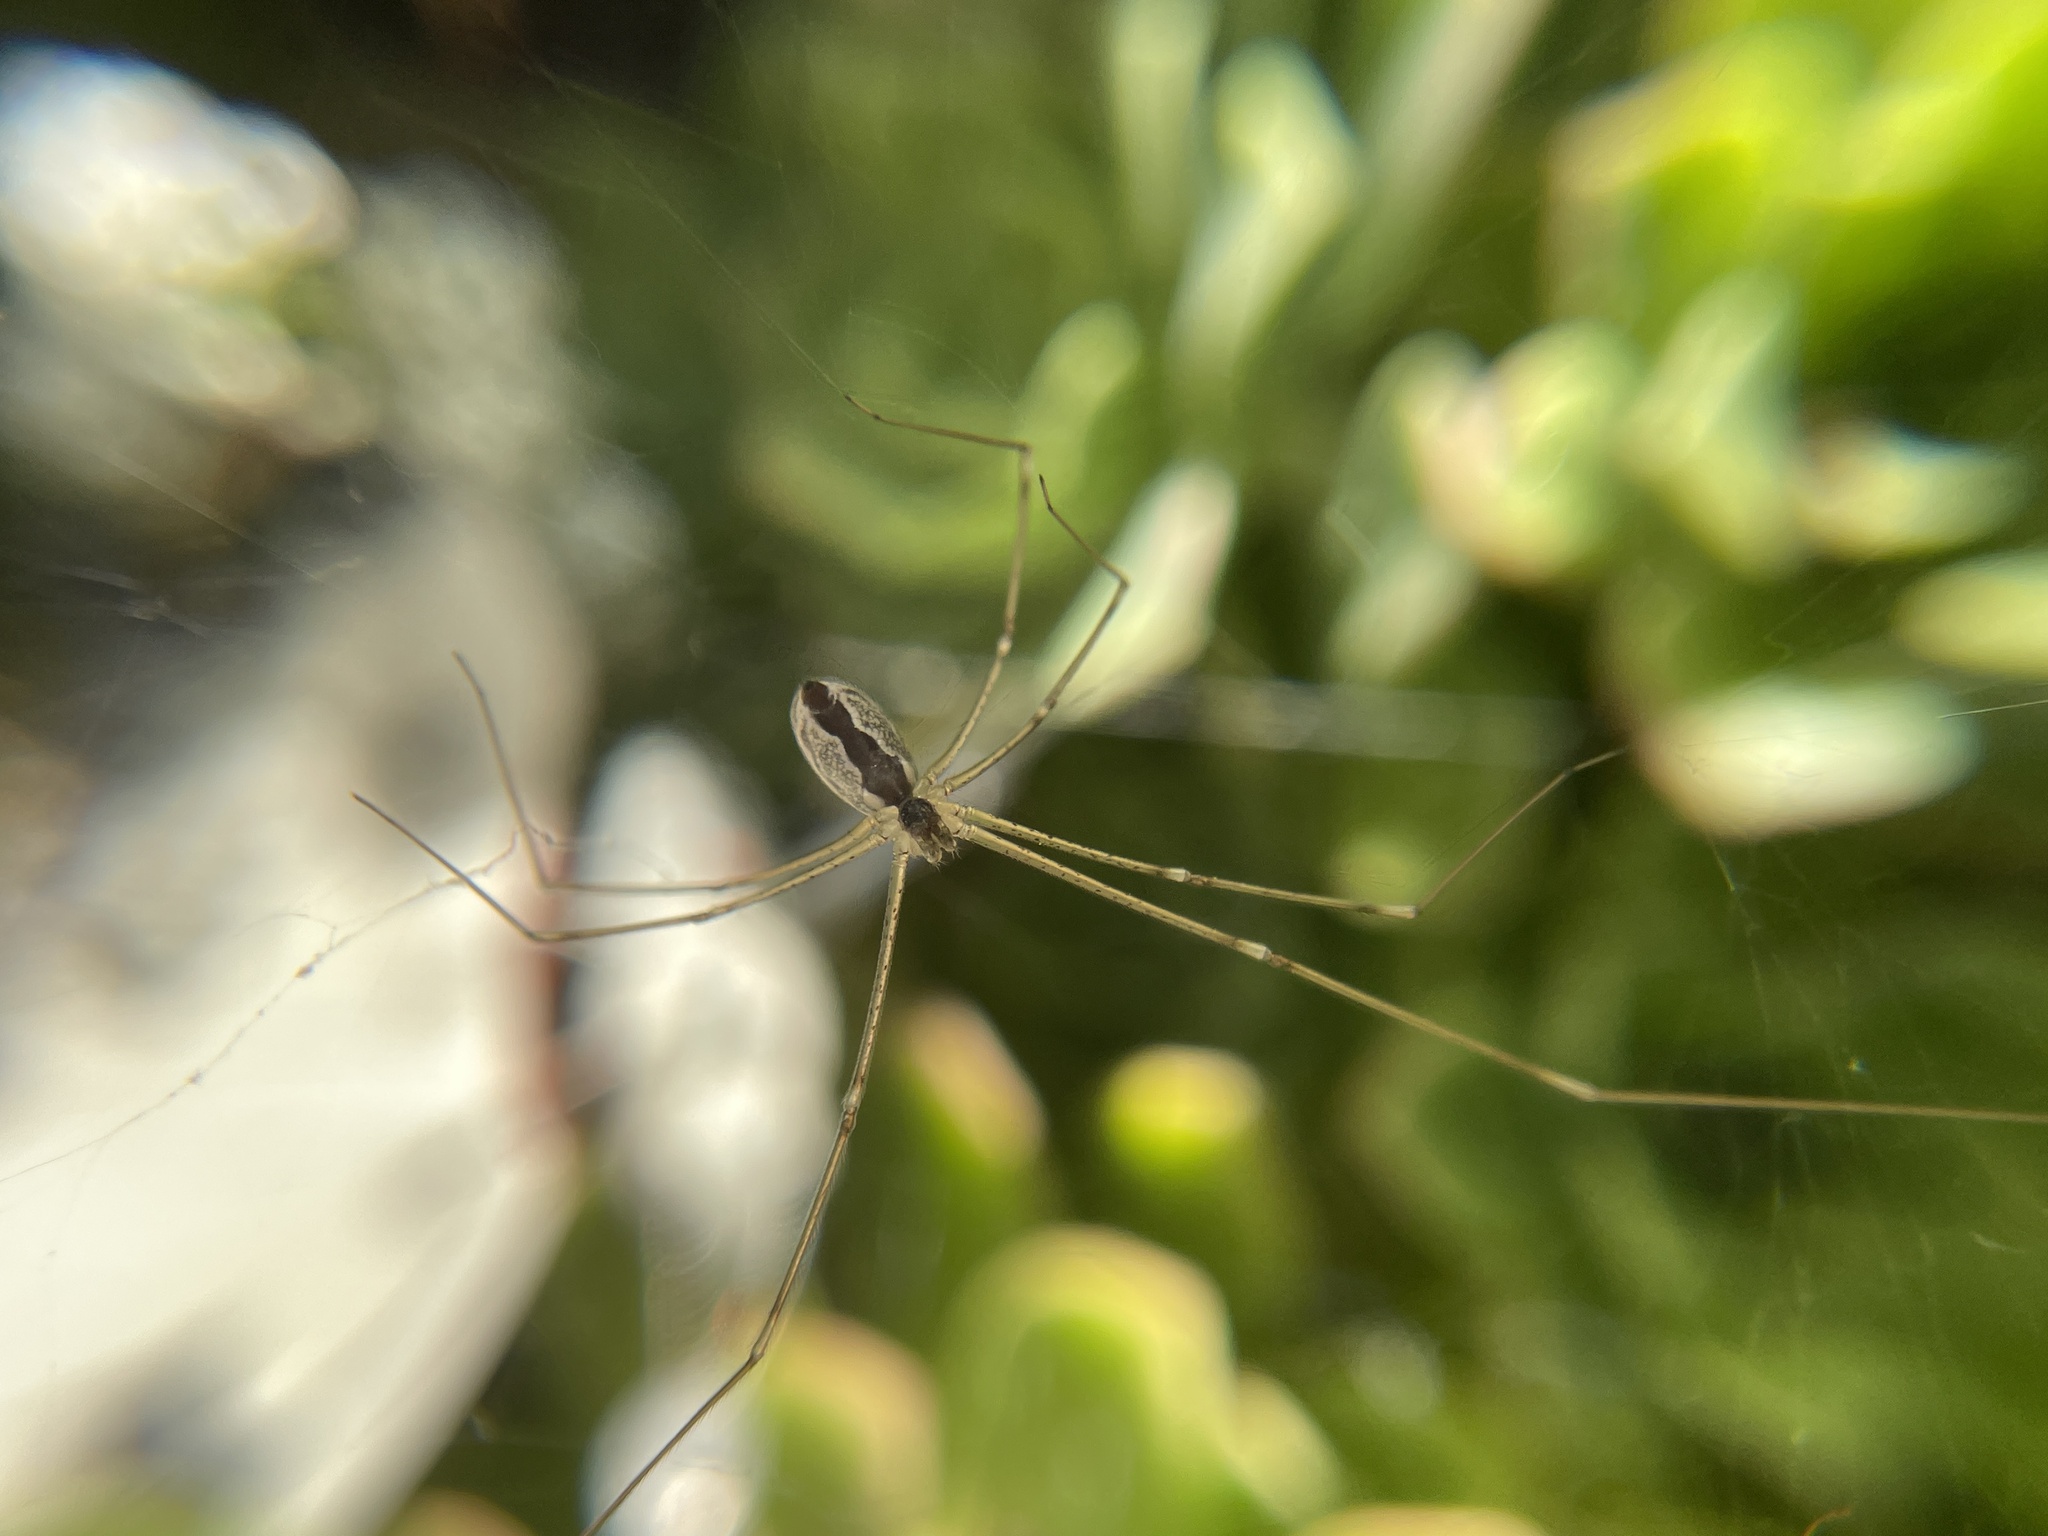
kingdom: Animalia
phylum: Arthropoda
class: Arachnida
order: Araneae
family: Pholcidae
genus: Holocnemus
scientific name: Holocnemus pluchei
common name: Marbled cellar spider
